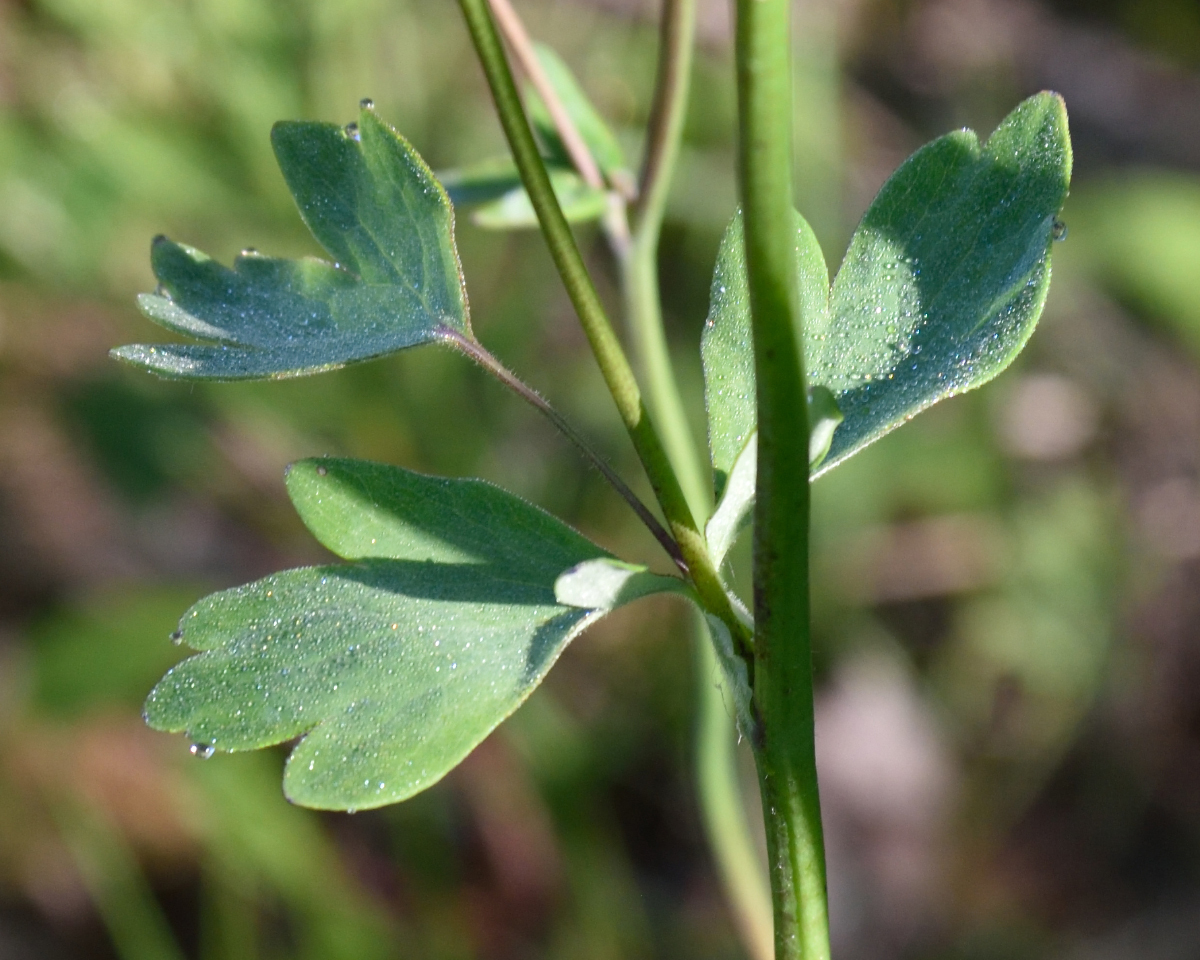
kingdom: Plantae
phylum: Tracheophyta
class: Magnoliopsida
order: Ranunculales
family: Ranunculaceae
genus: Aquilegia
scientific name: Aquilegia vulgaris
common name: Columbine
